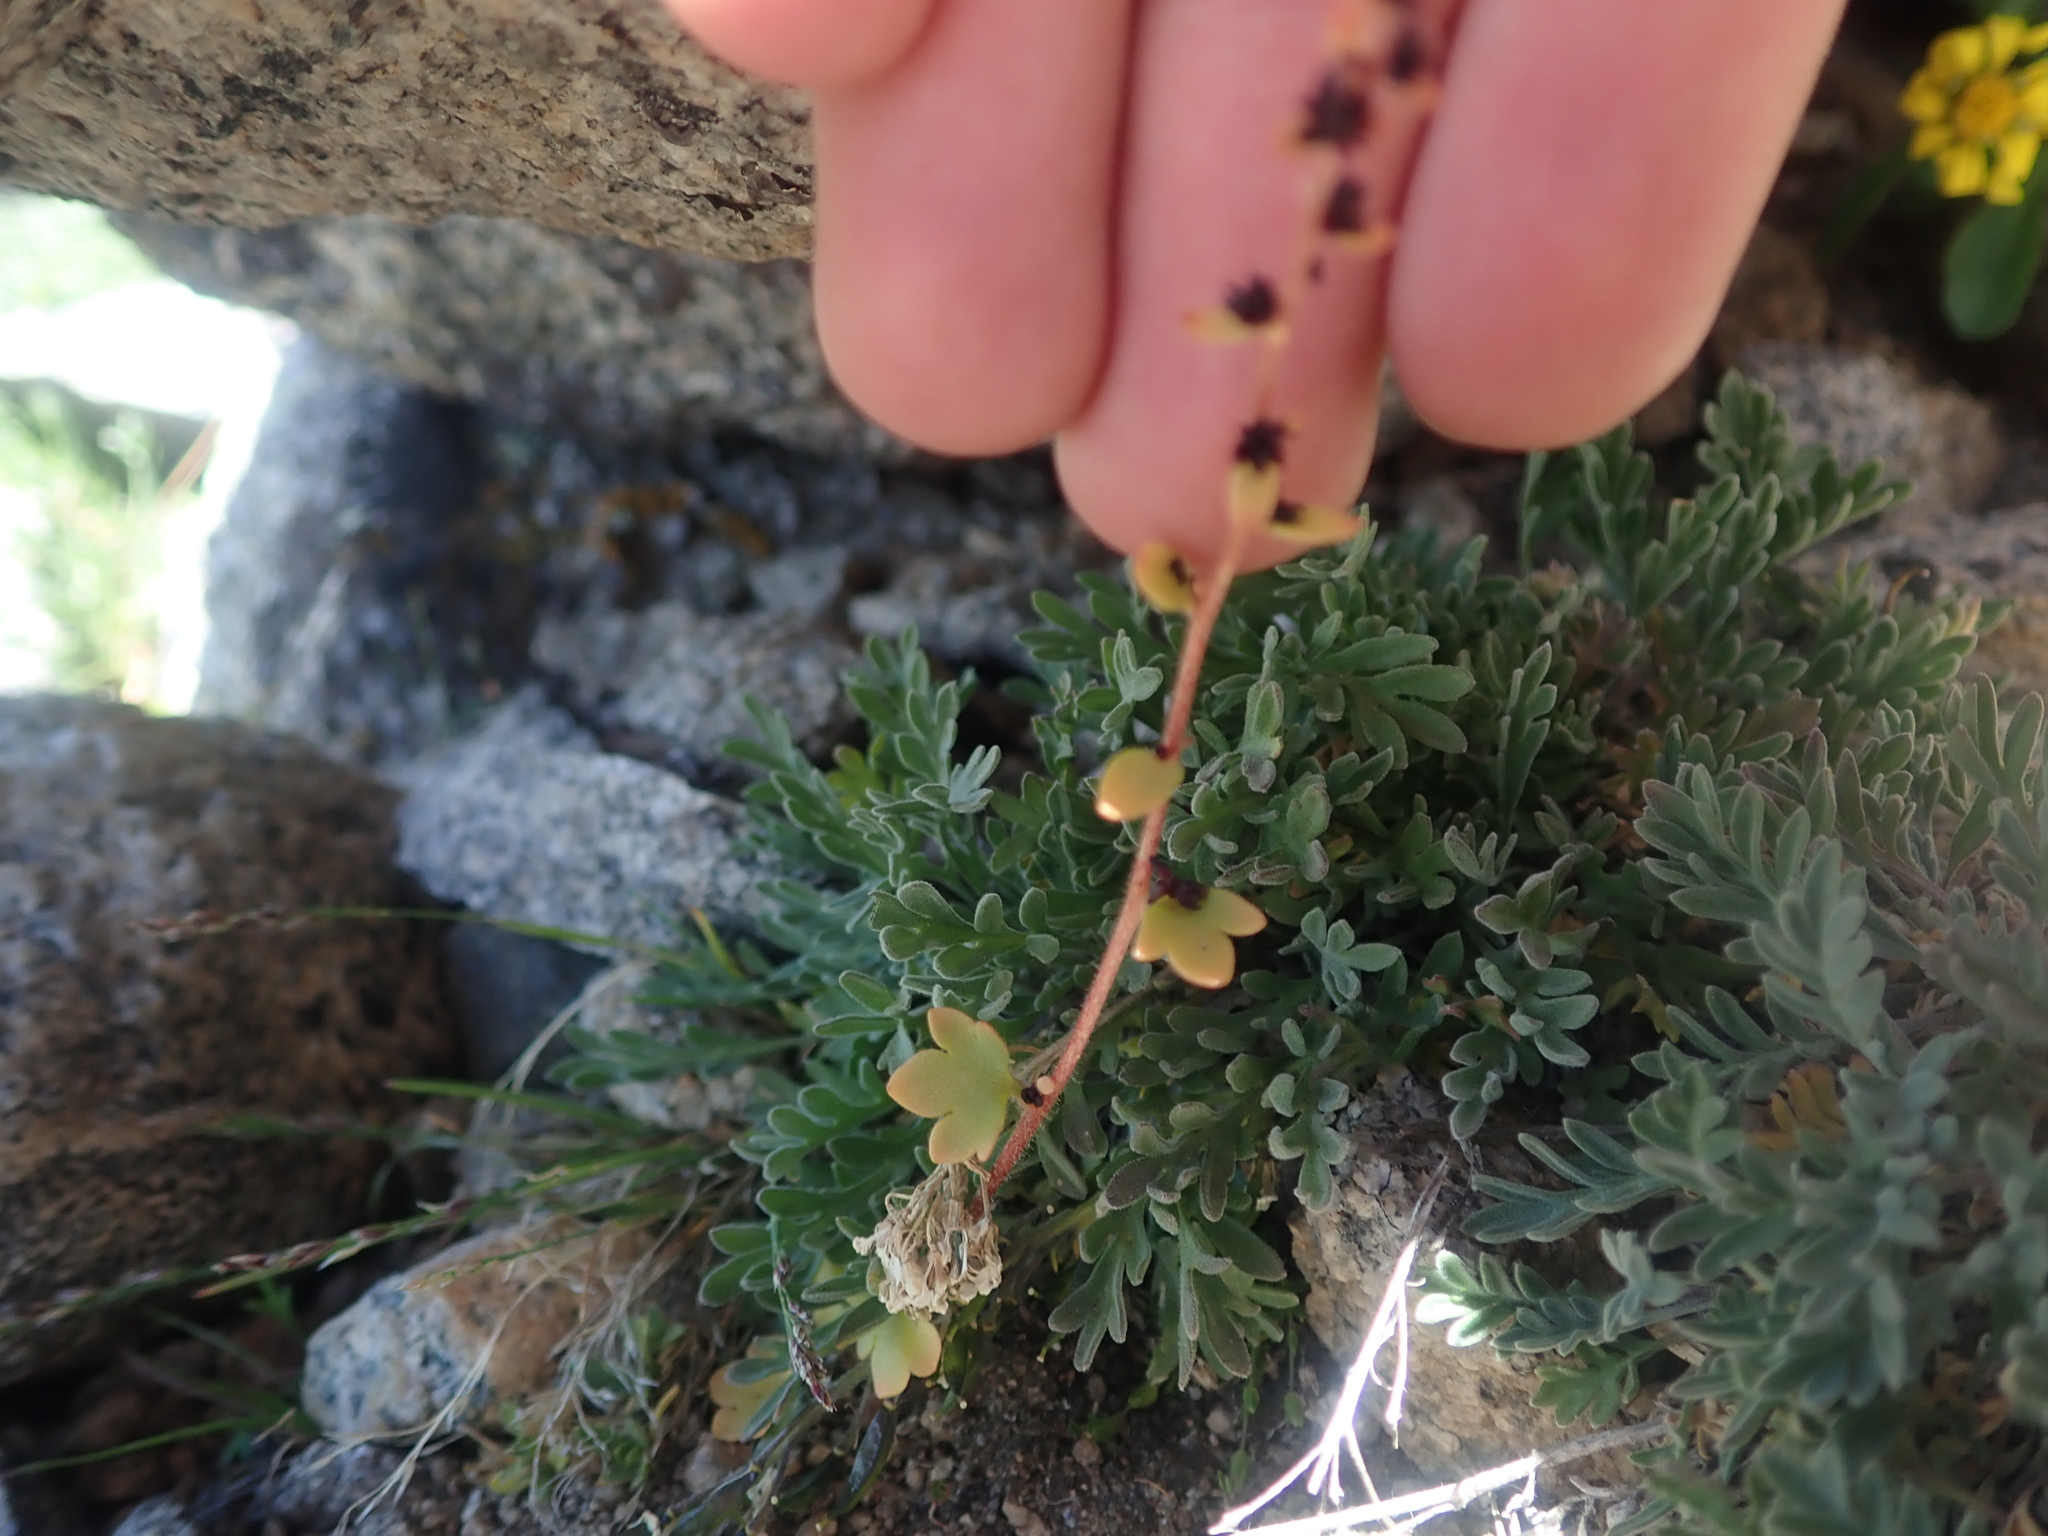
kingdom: Plantae
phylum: Tracheophyta
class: Magnoliopsida
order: Saxifragales
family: Saxifragaceae
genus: Saxifraga
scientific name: Saxifraga cernua
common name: Drooping saxifrage
